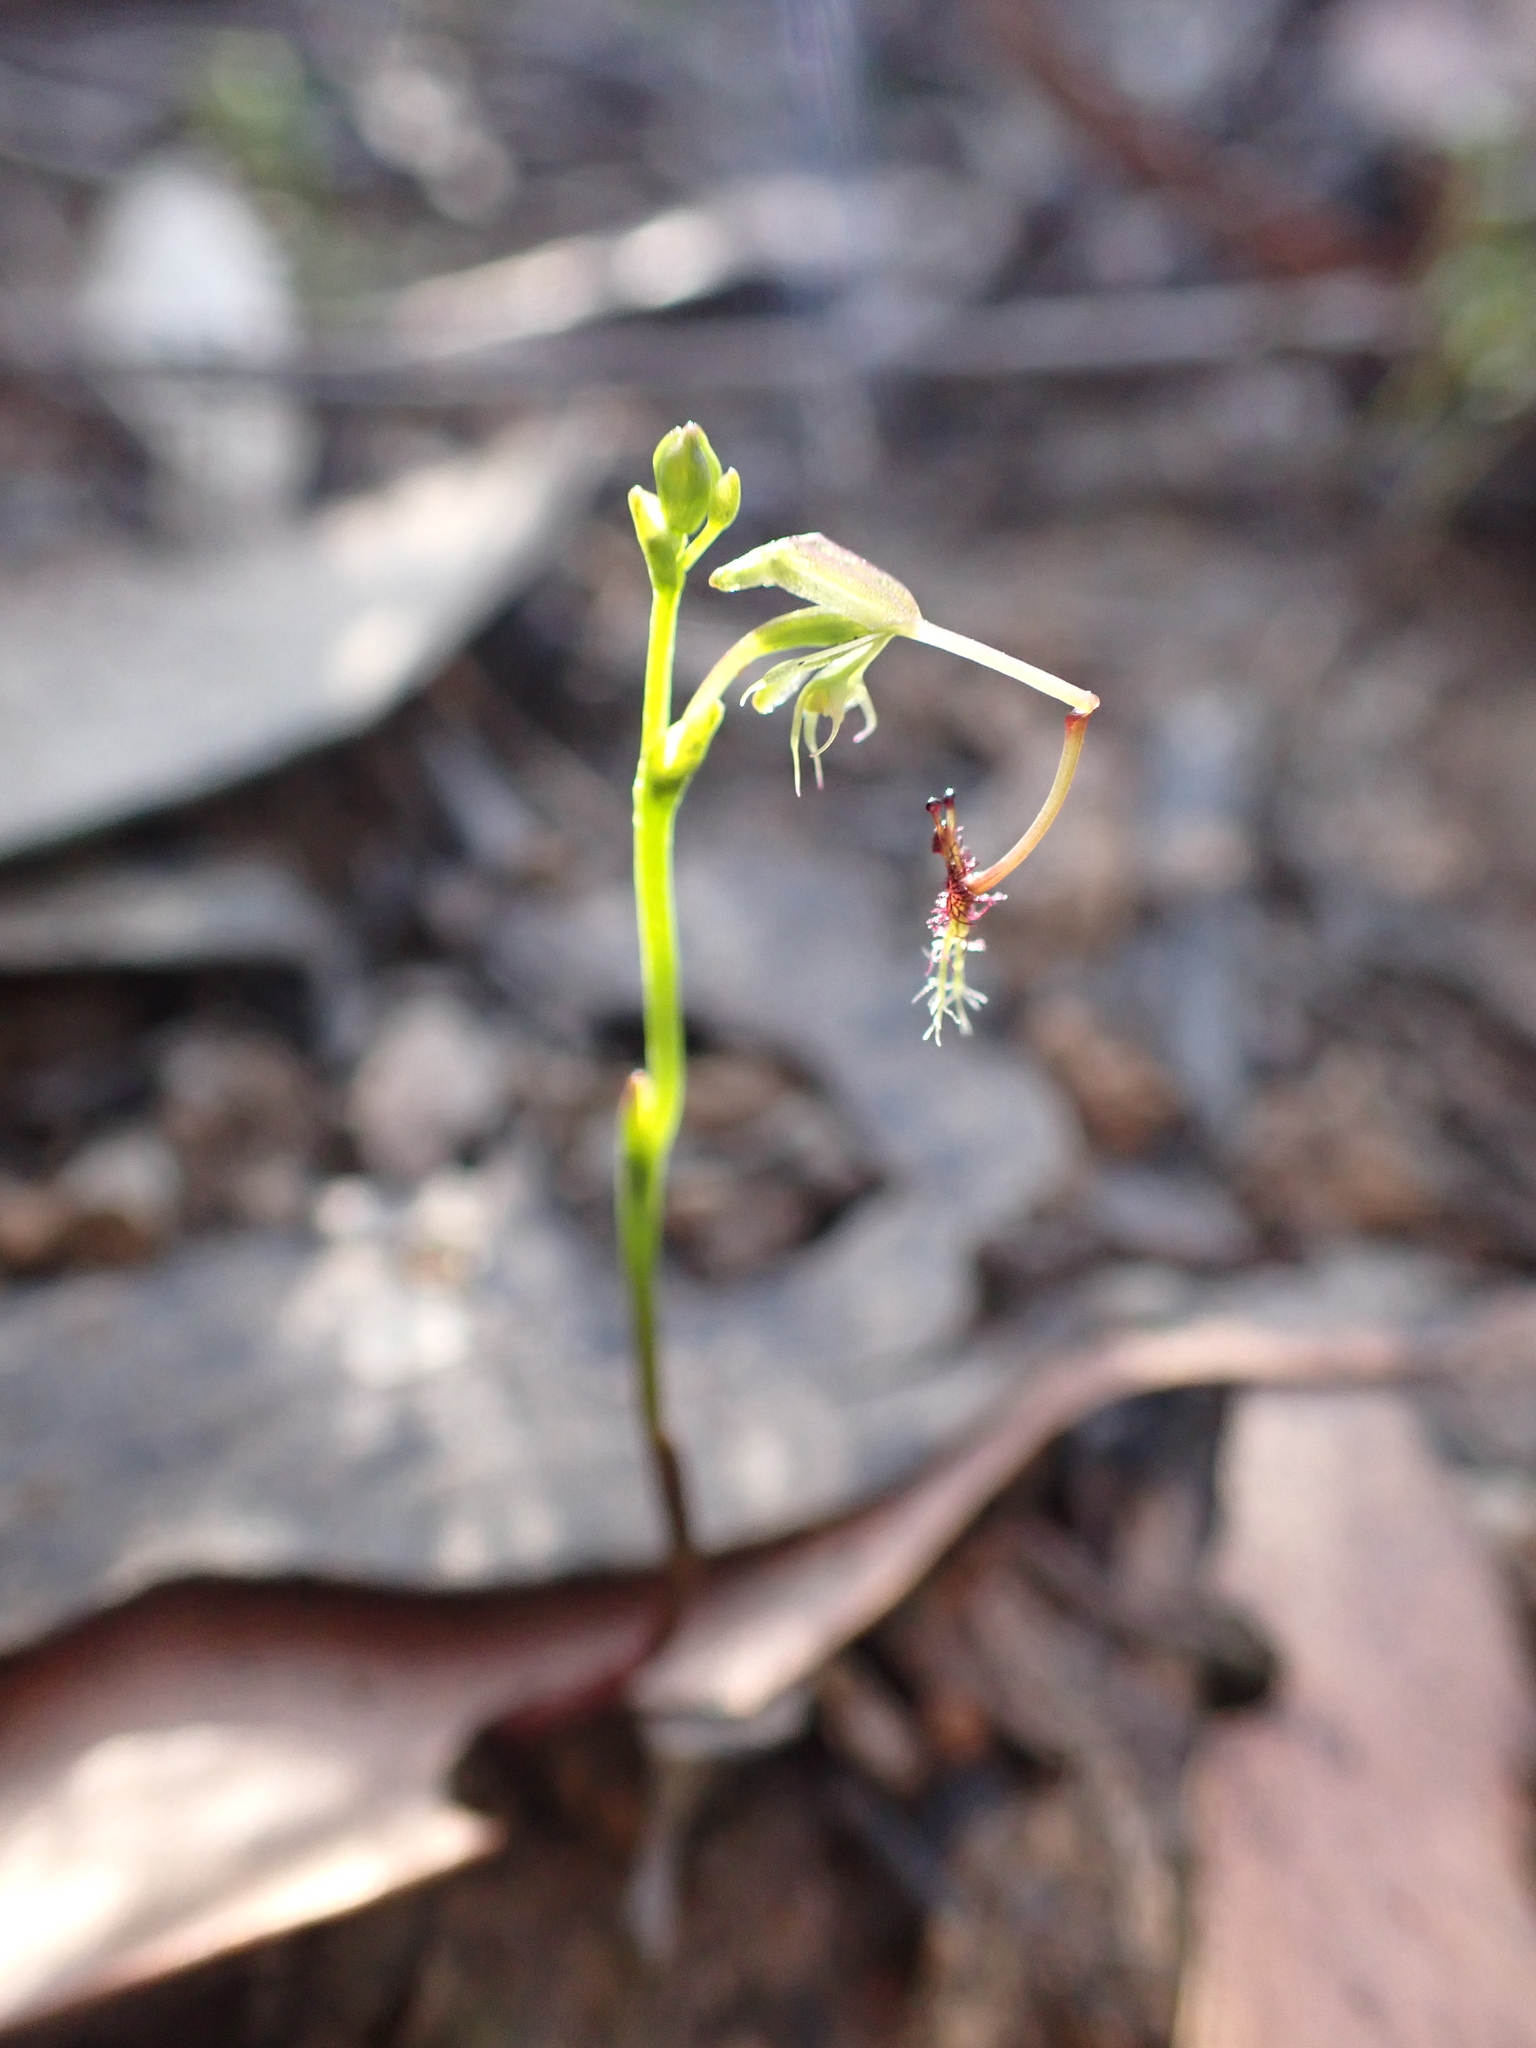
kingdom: Plantae
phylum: Tracheophyta
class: Liliopsida
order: Asparagales
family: Orchidaceae
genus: Arthrochilus
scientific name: Arthrochilus huntianus
